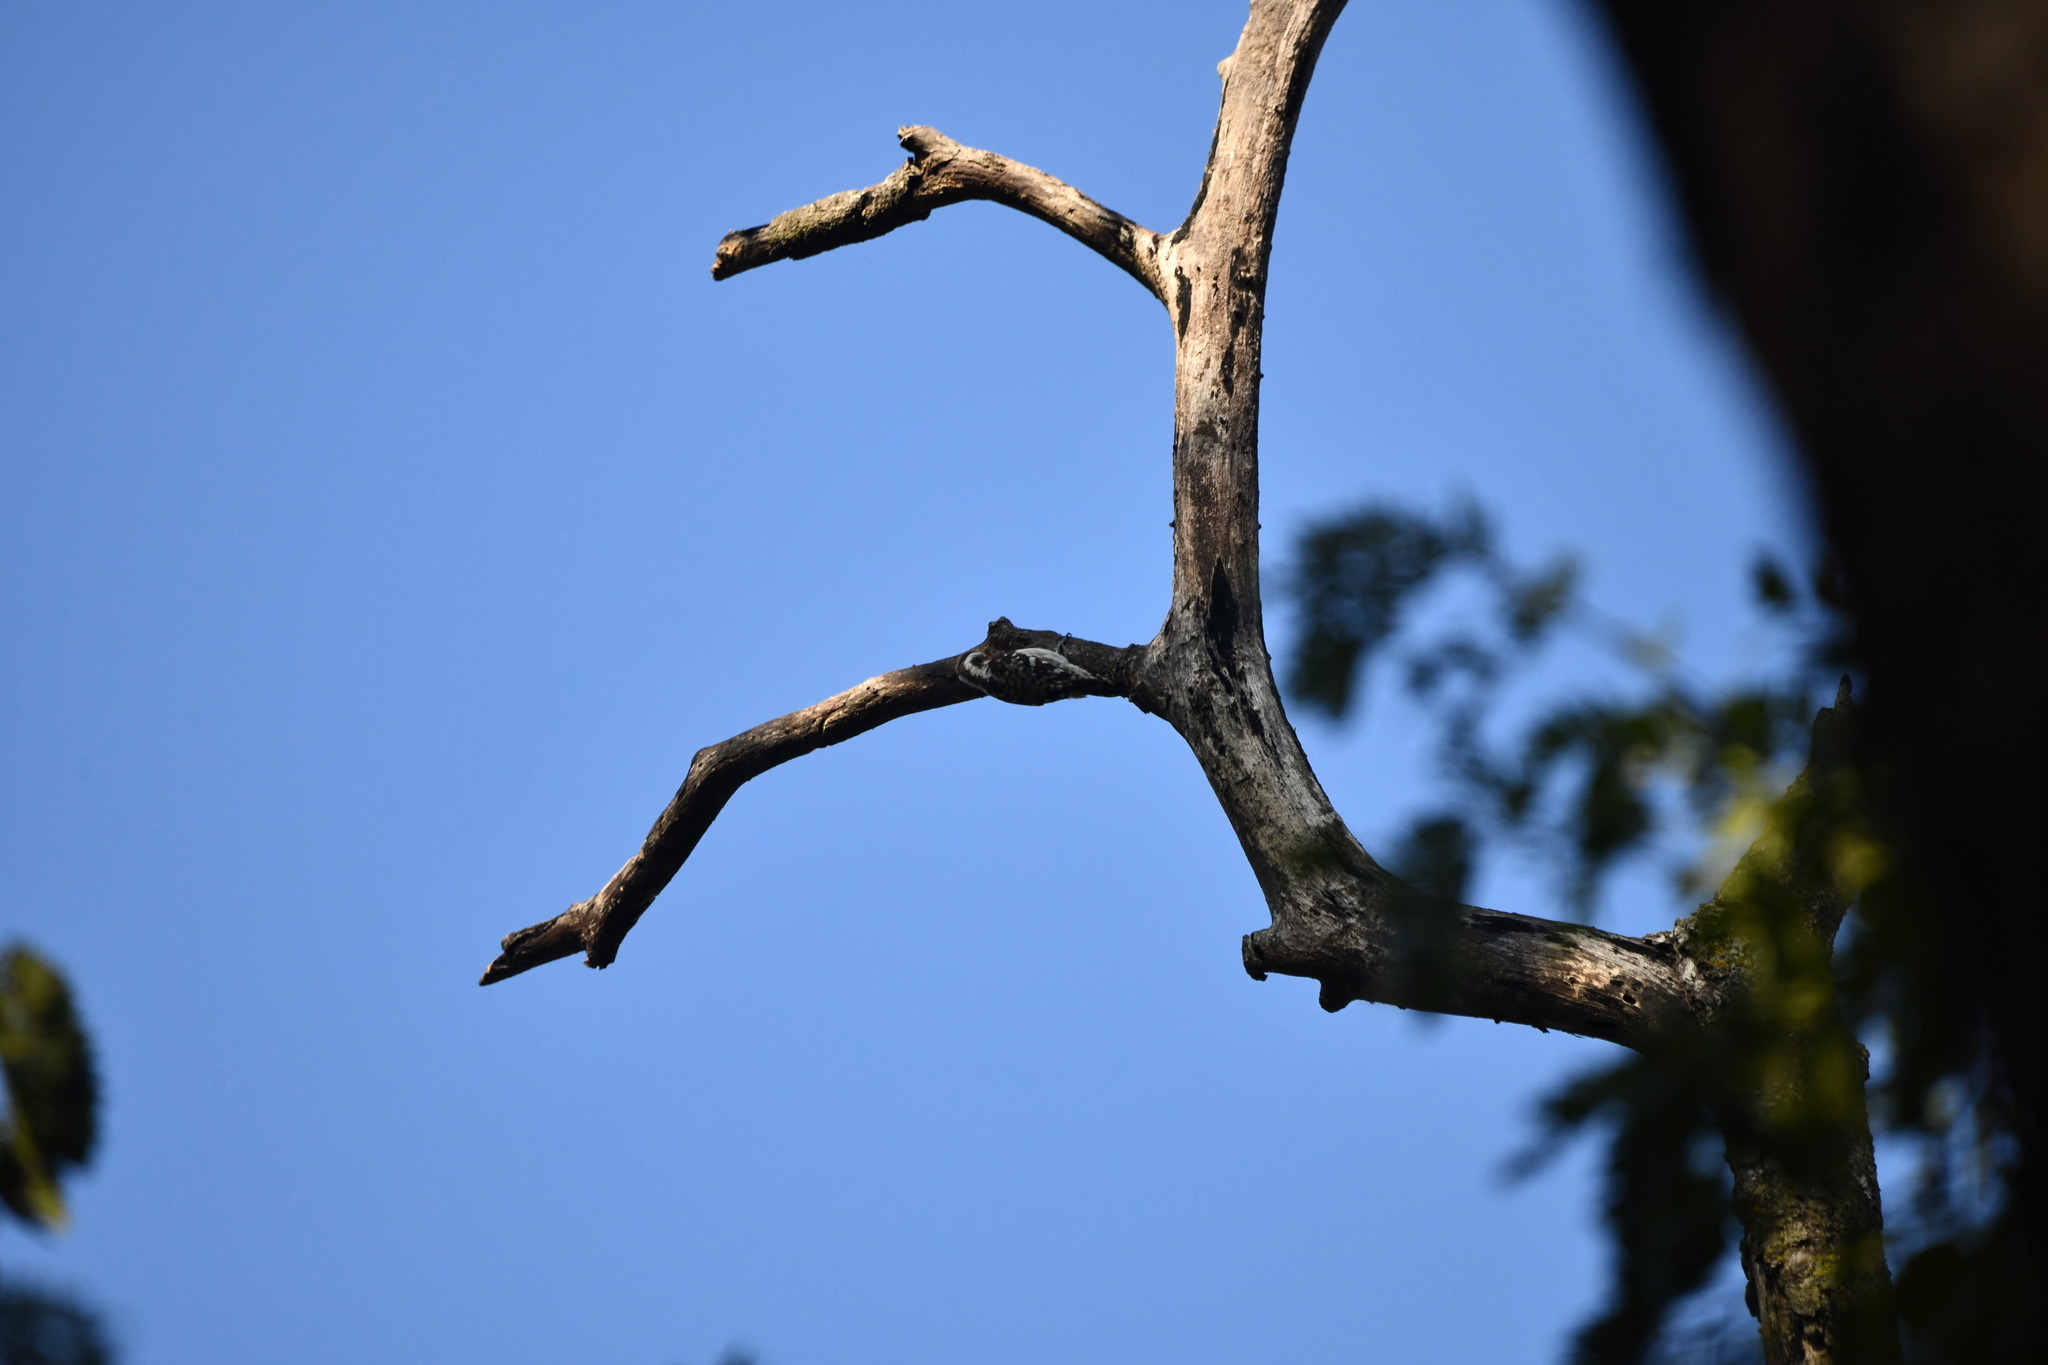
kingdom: Animalia
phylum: Chordata
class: Aves
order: Piciformes
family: Picidae
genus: Yungipicus
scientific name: Yungipicus nanus
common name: Brown-capped pygmy woodpecker
